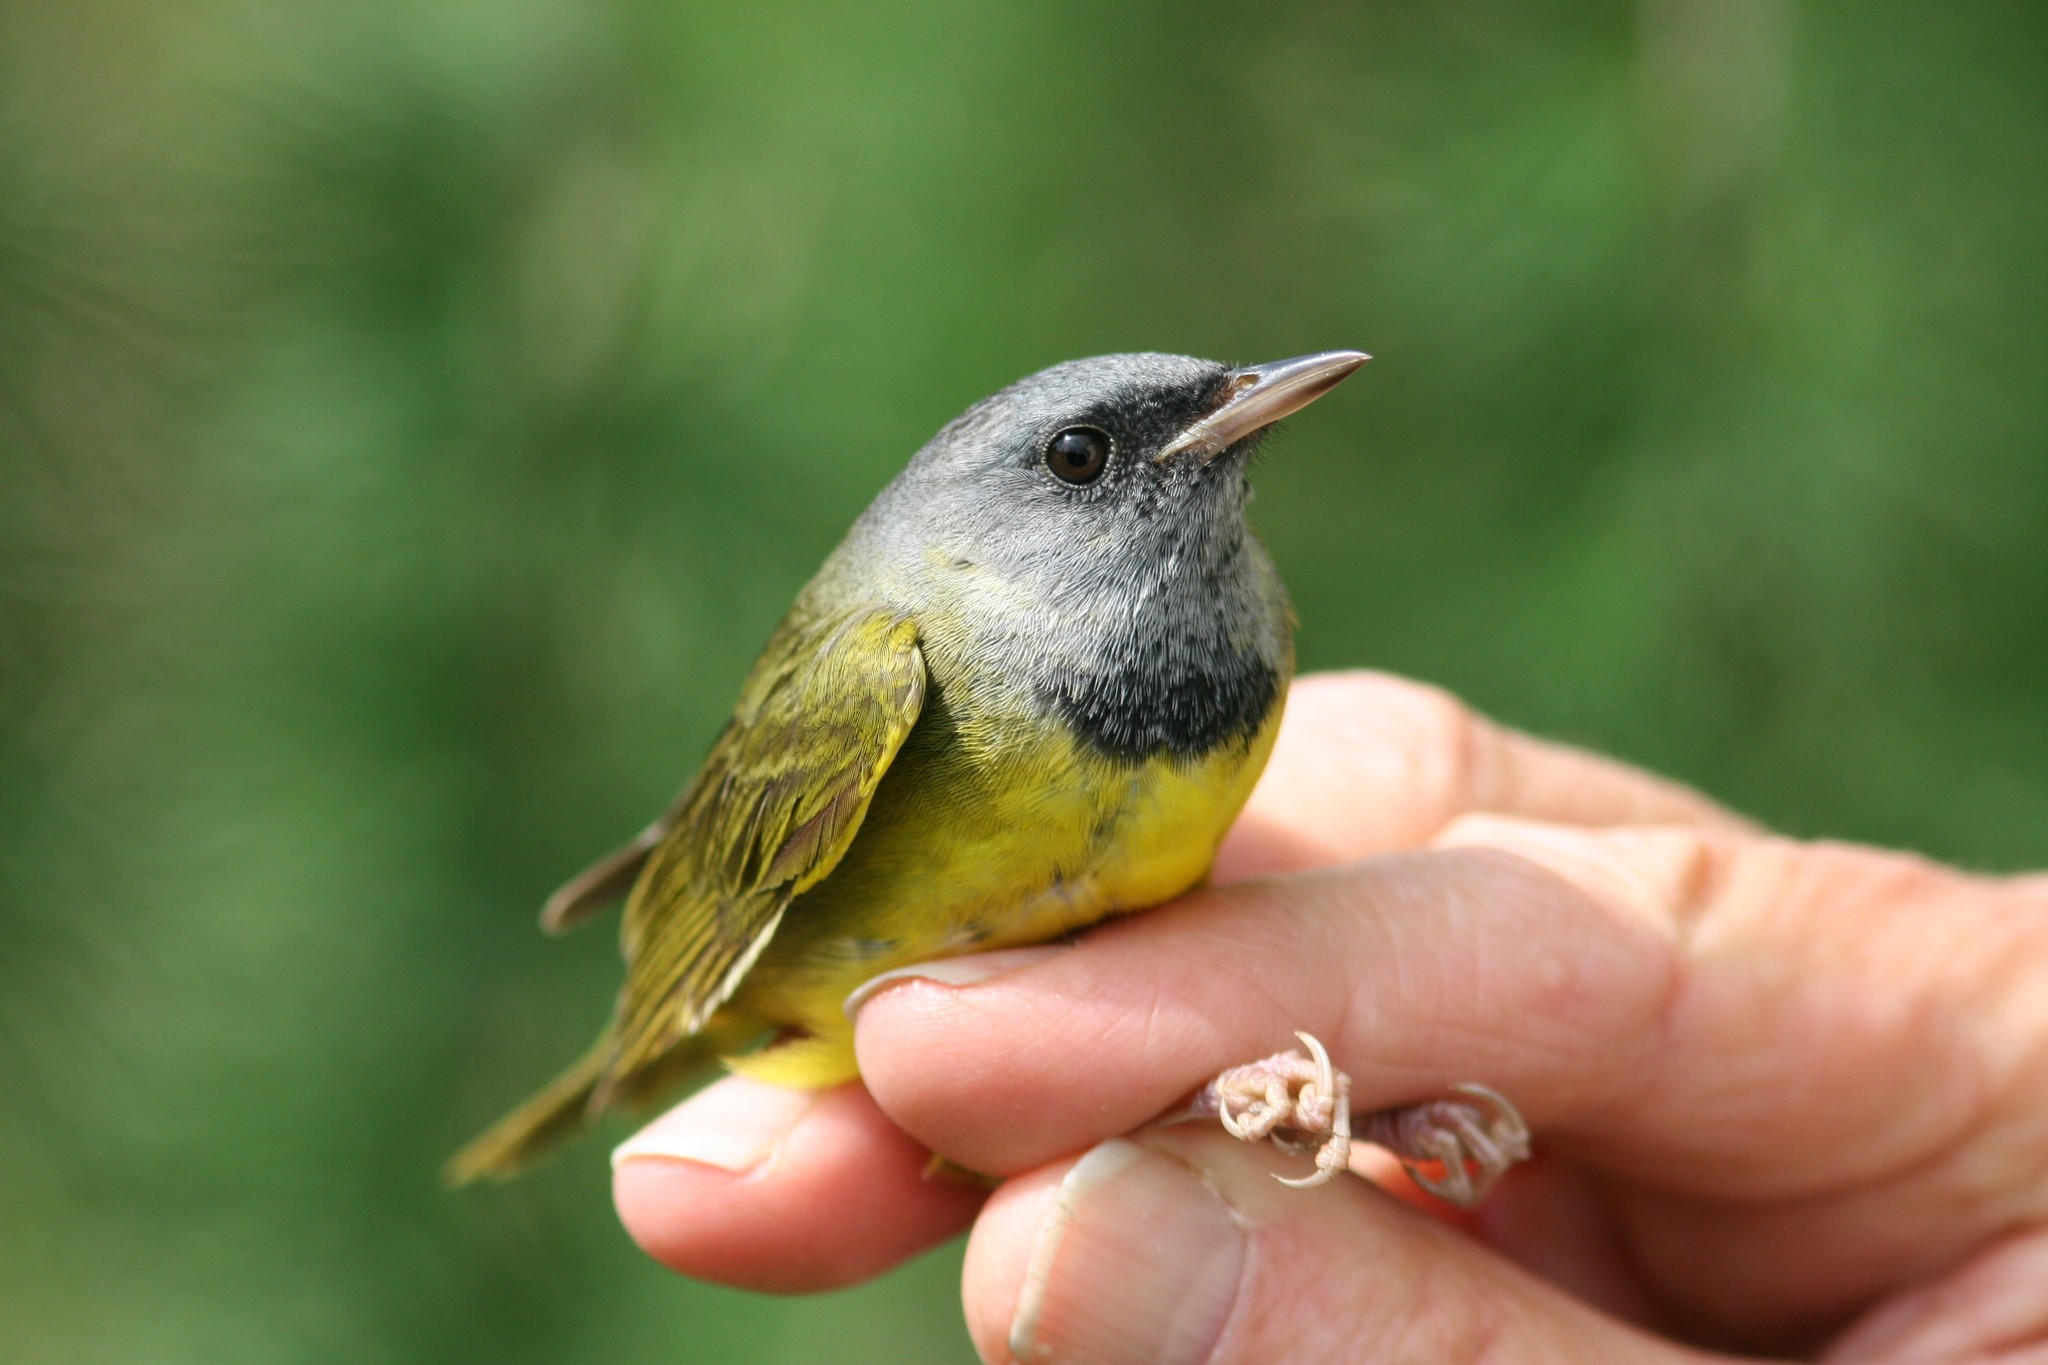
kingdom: Animalia
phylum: Chordata
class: Aves
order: Passeriformes
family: Parulidae
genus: Geothlypis
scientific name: Geothlypis philadelphia
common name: Mourning warbler
